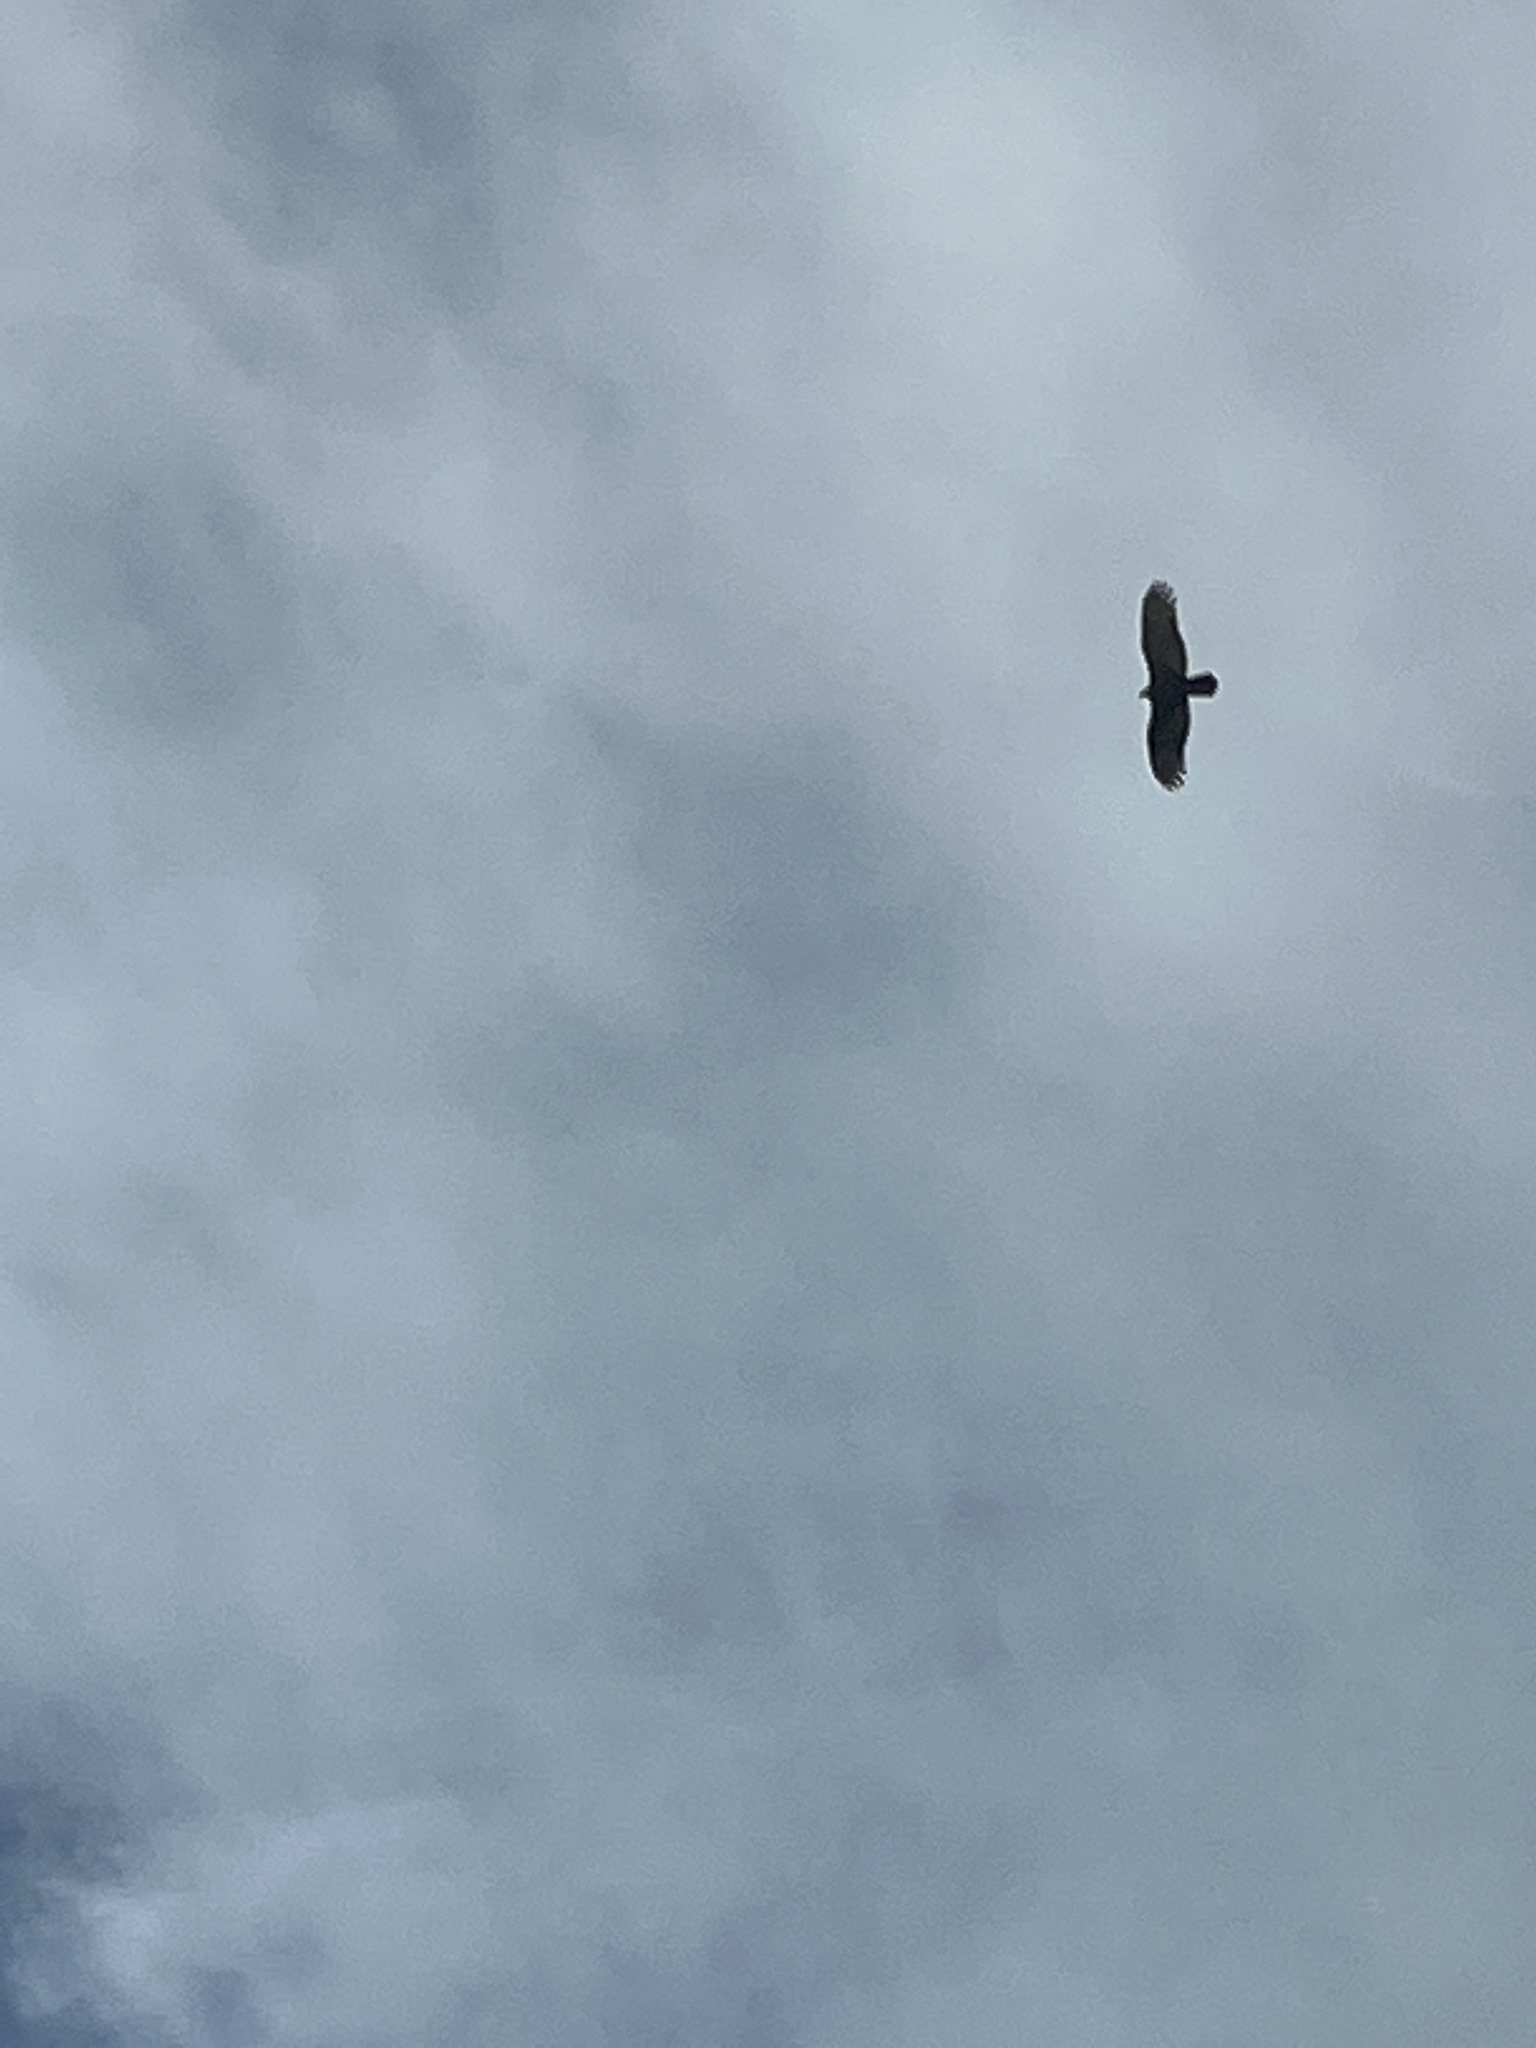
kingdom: Animalia
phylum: Chordata
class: Aves
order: Accipitriformes
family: Cathartidae
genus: Cathartes
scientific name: Cathartes aura
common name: Turkey vulture
